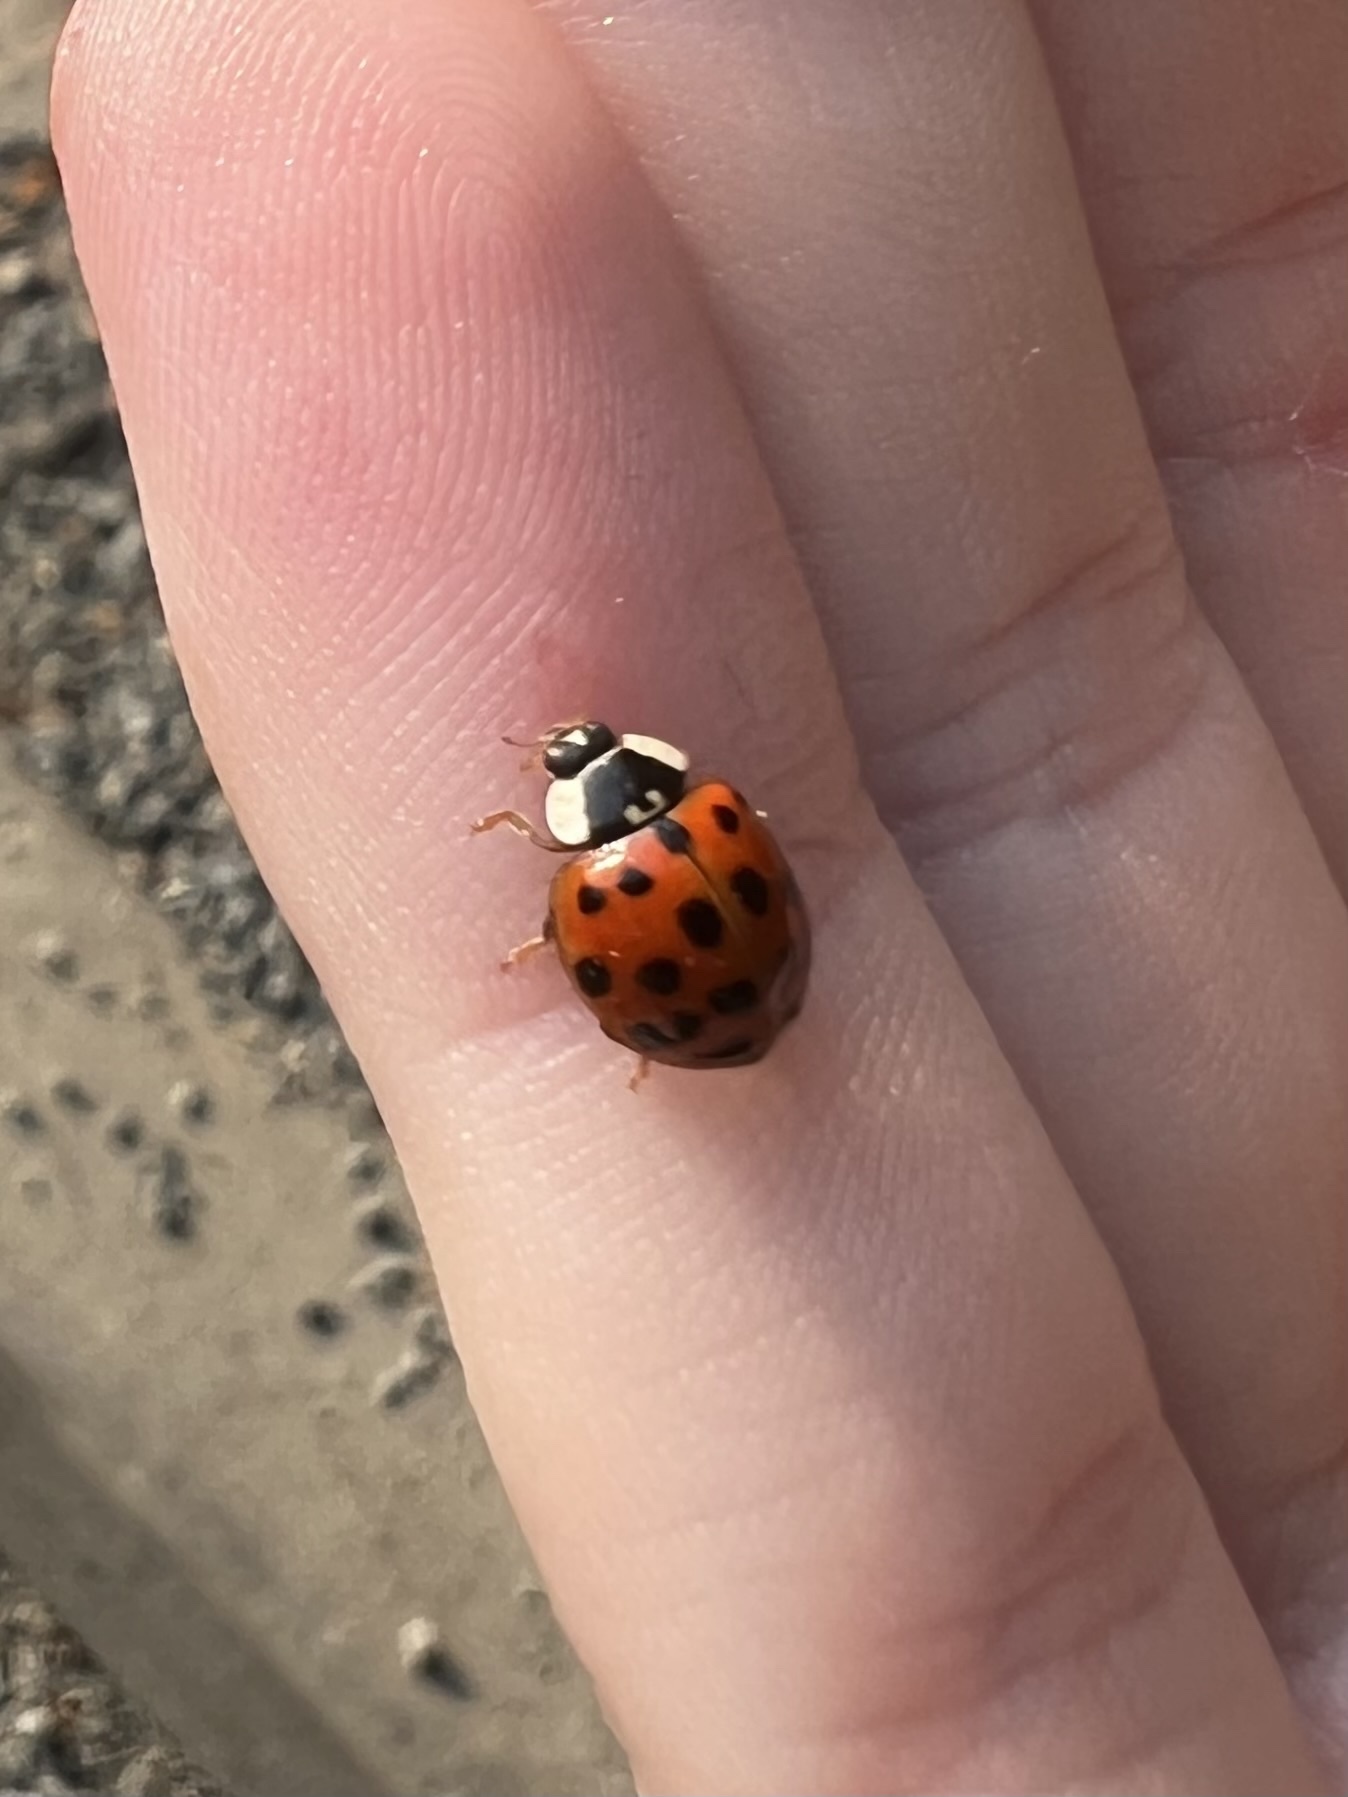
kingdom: Animalia
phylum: Arthropoda
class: Insecta
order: Coleoptera
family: Coccinellidae
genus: Harmonia
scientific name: Harmonia axyridis
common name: Harlequin ladybird
